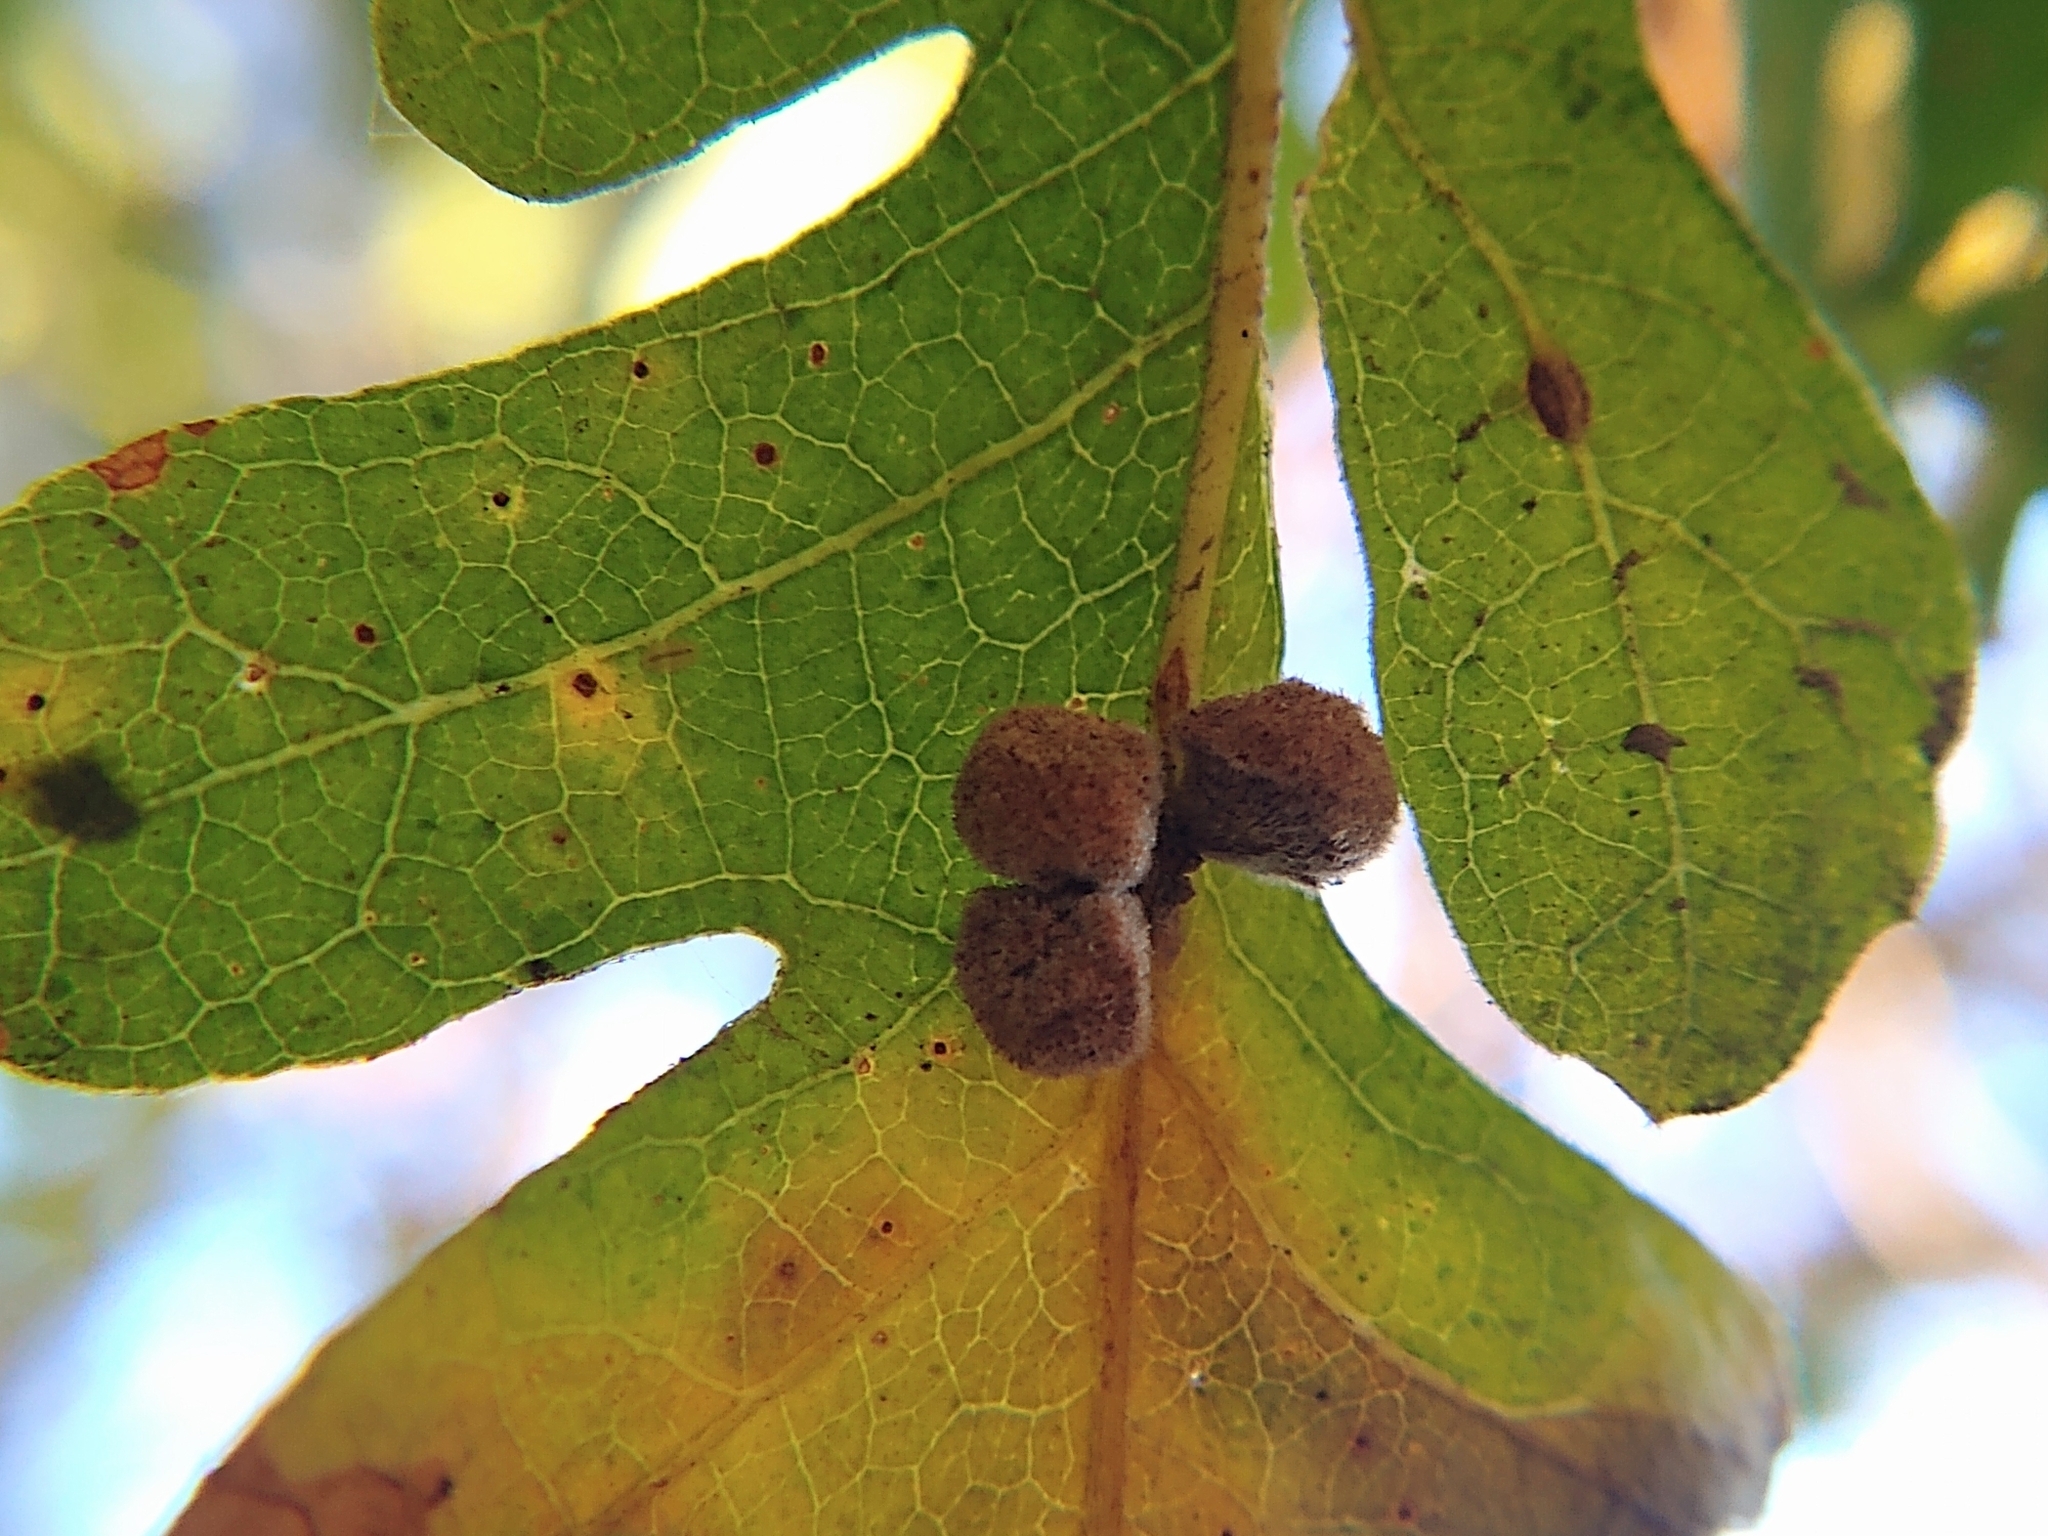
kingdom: Animalia
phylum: Arthropoda
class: Insecta
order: Hymenoptera
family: Cynipidae
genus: Andricus
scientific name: Andricus
